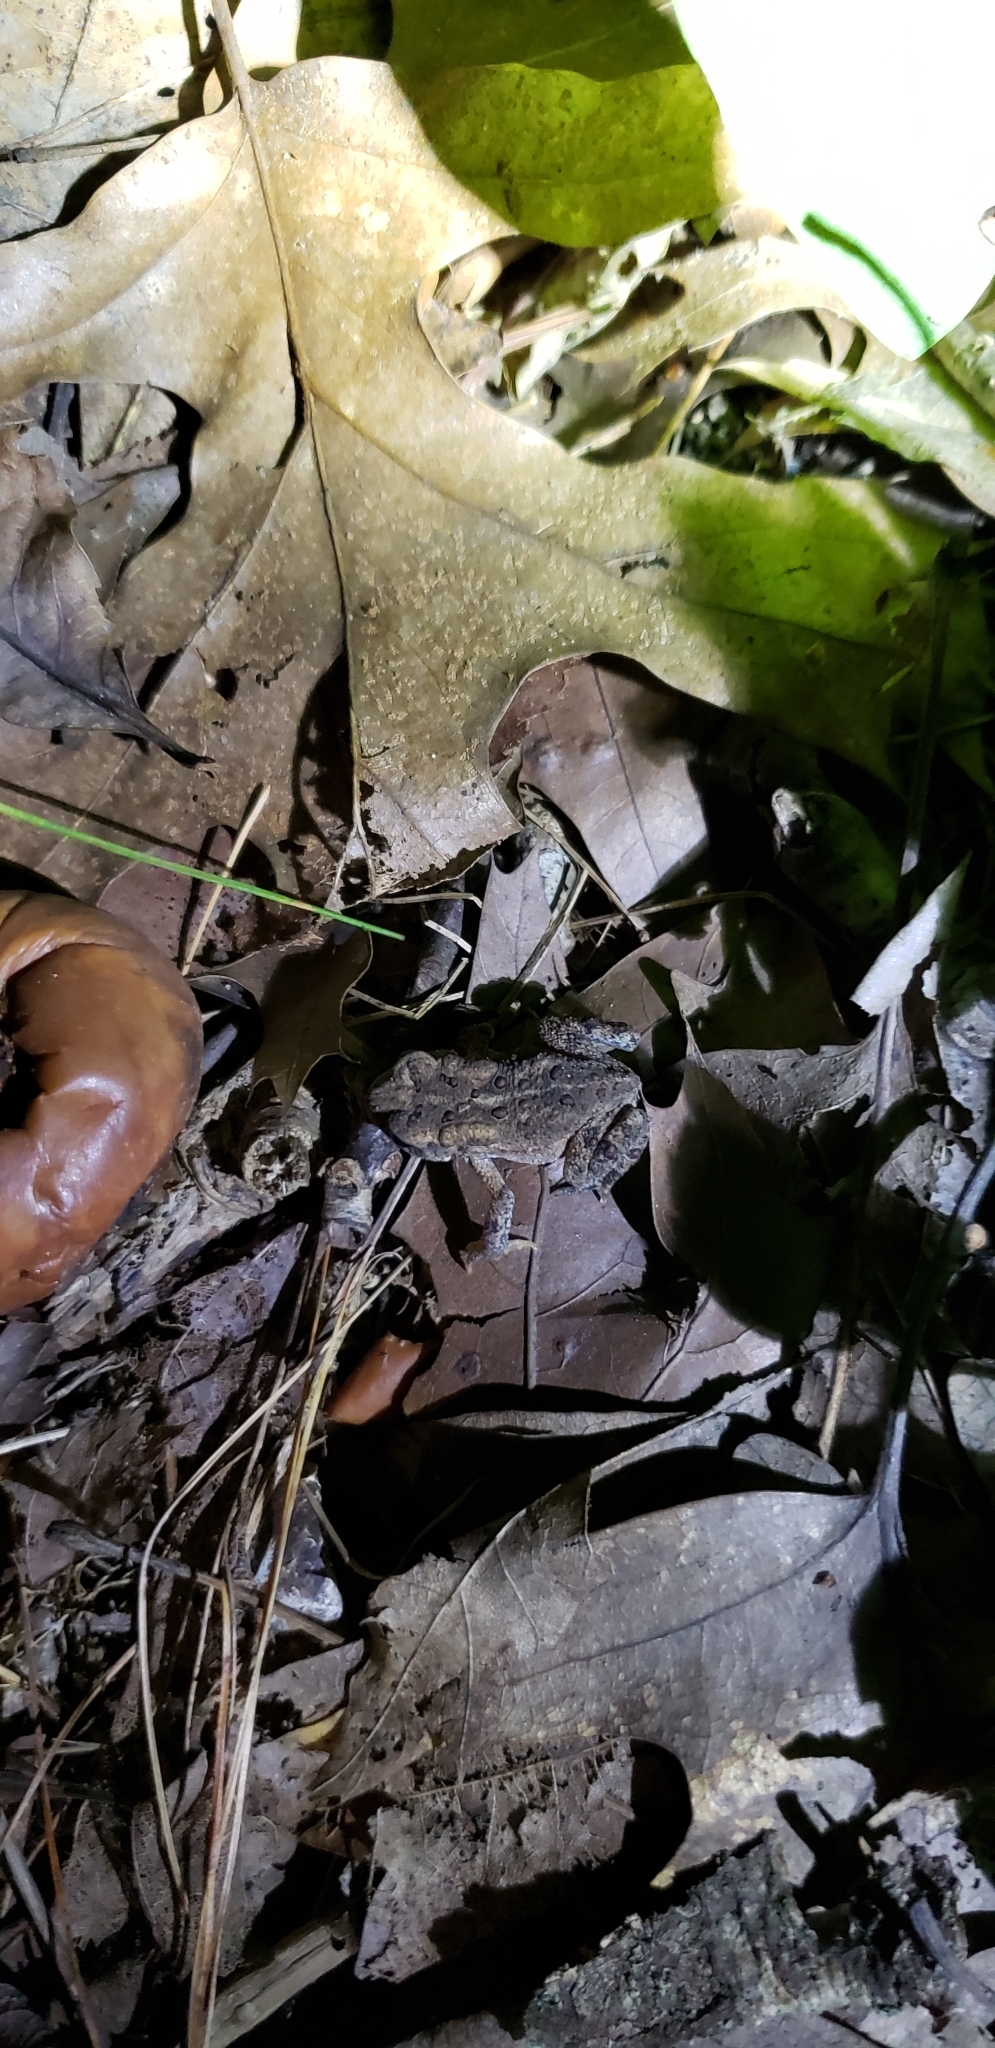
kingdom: Animalia
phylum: Chordata
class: Amphibia
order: Anura
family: Bufonidae
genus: Anaxyrus
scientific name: Anaxyrus americanus
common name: American toad
